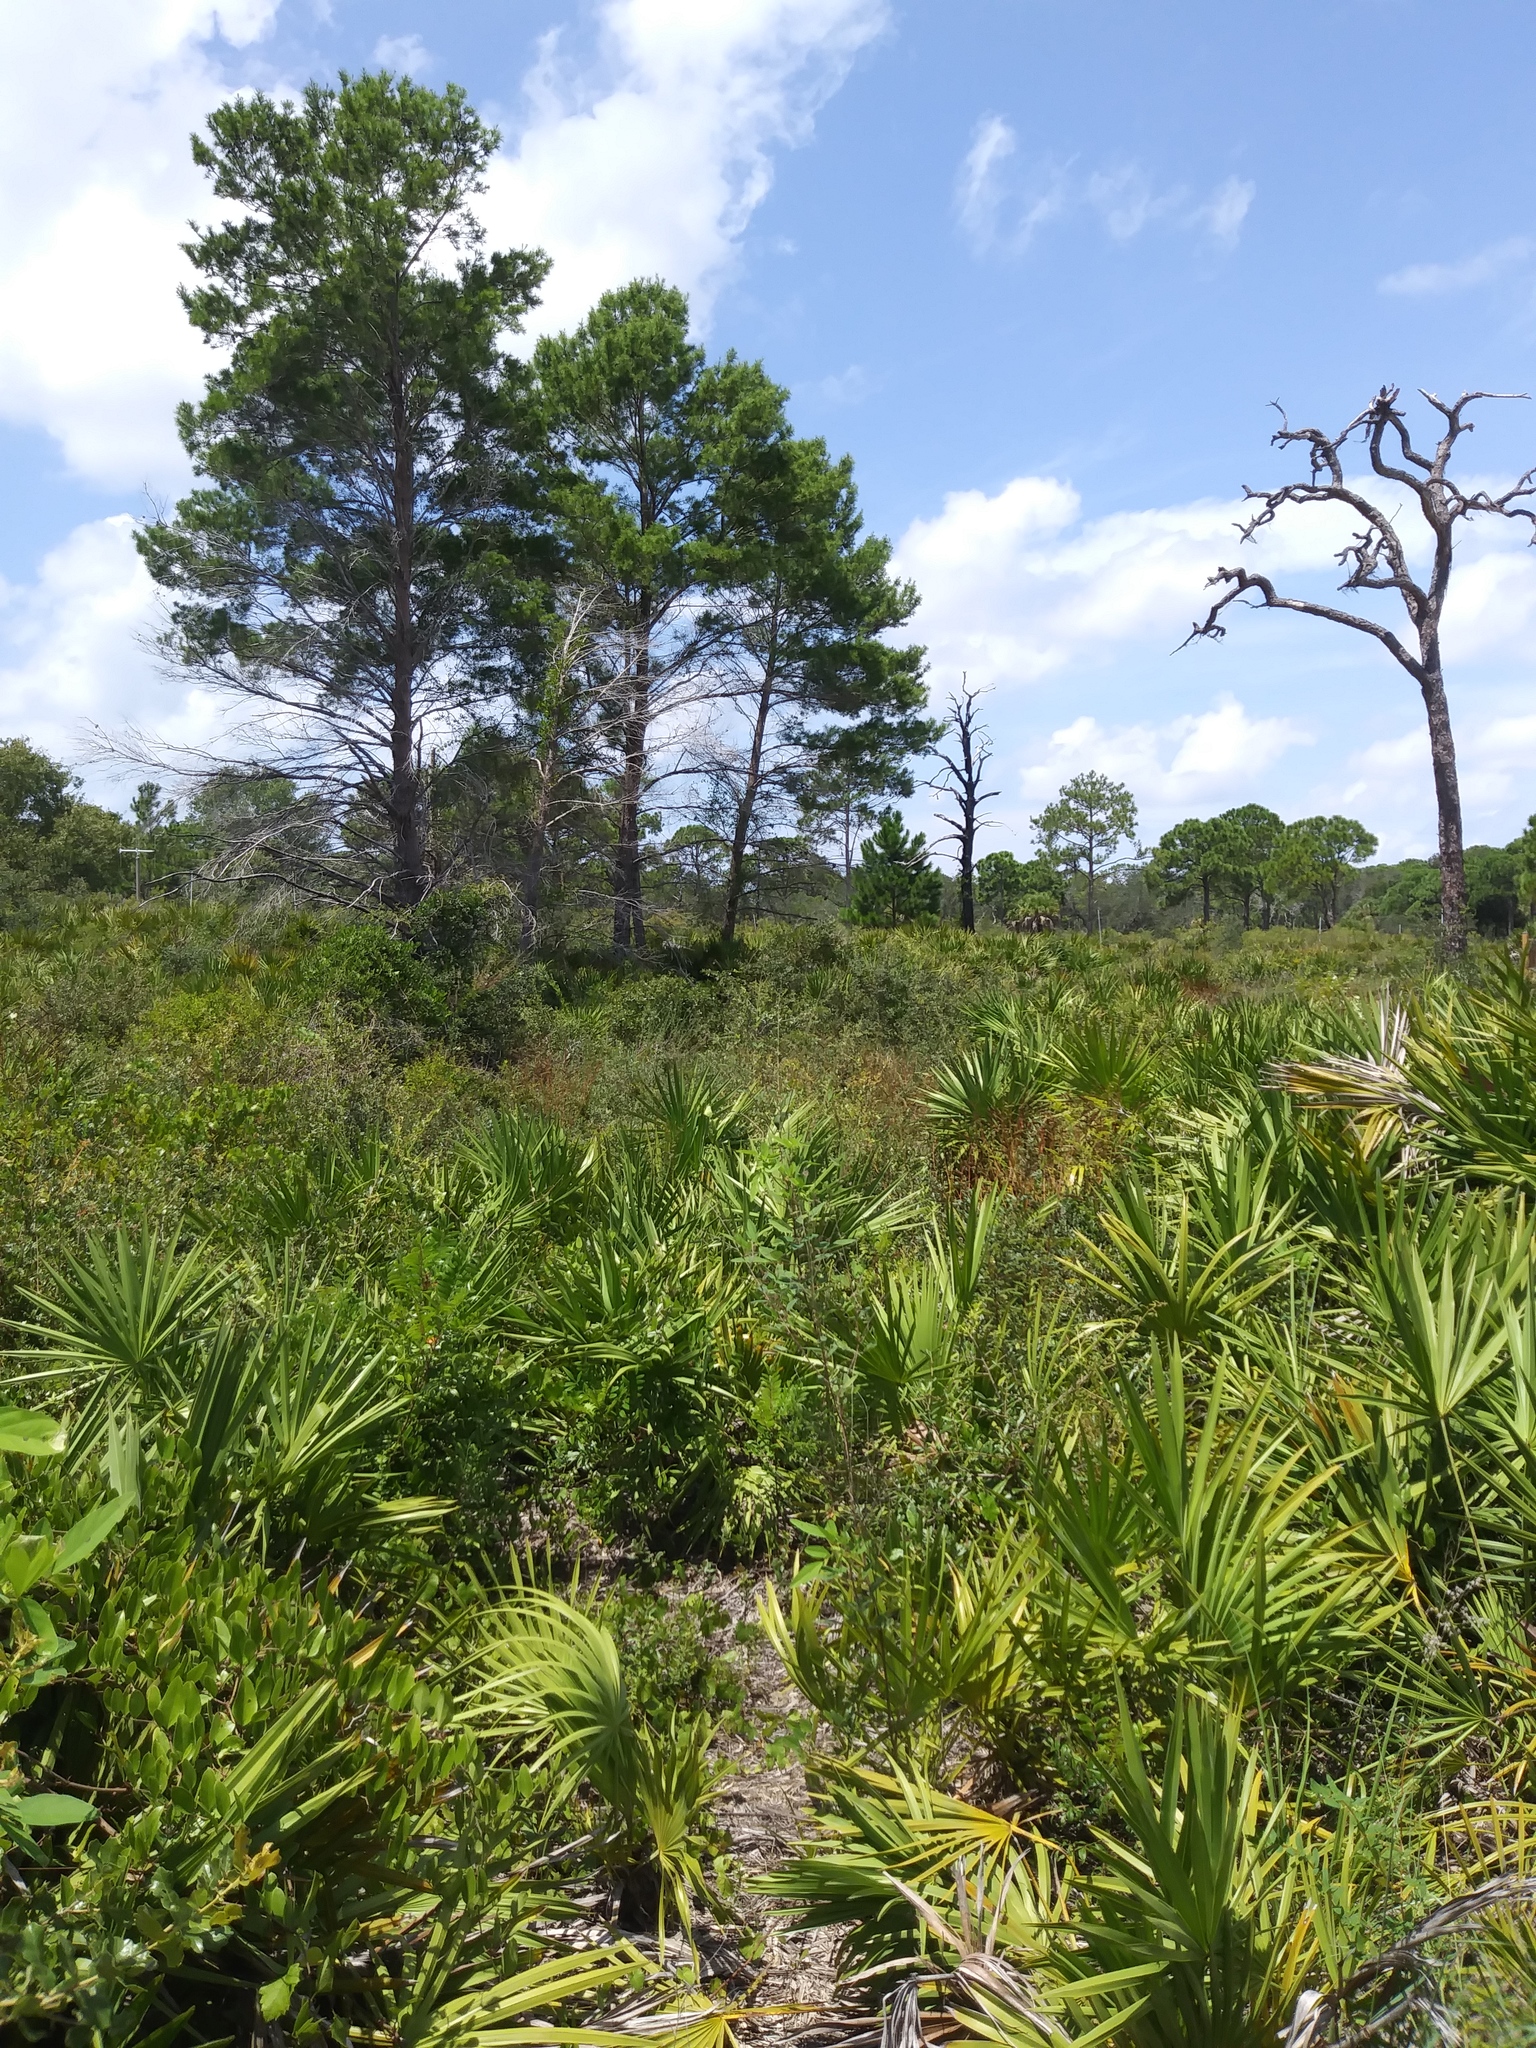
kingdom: Plantae
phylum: Tracheophyta
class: Liliopsida
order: Arecales
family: Arecaceae
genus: Serenoa
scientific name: Serenoa repens
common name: Saw-palmetto
